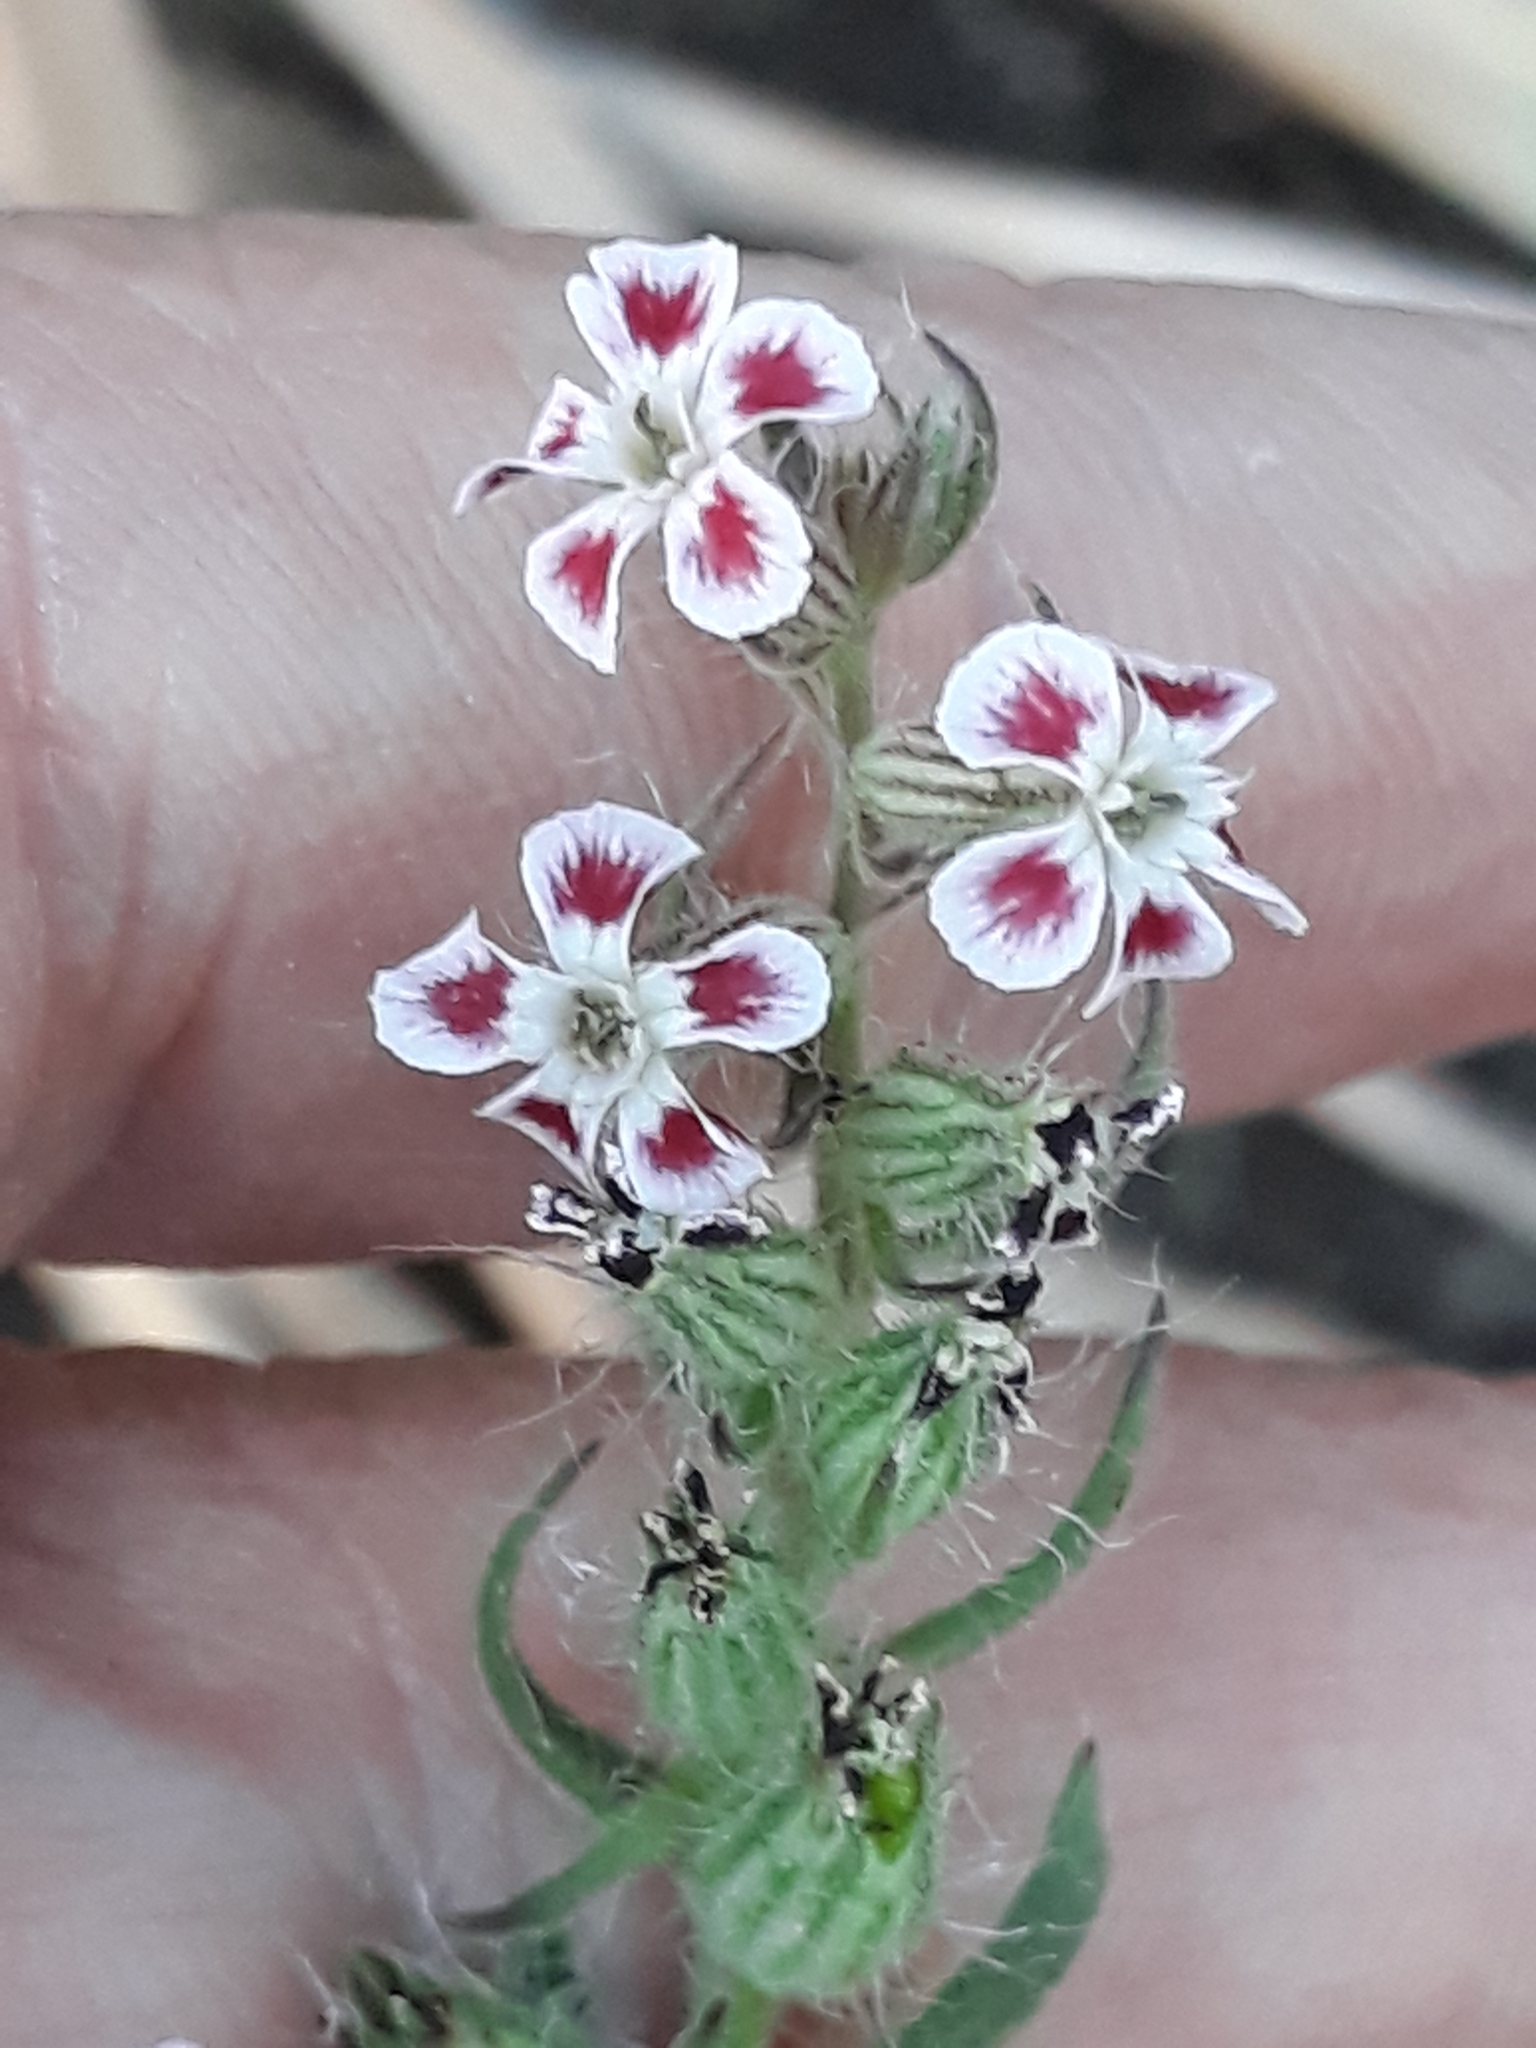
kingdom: Plantae
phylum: Tracheophyta
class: Magnoliopsida
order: Caryophyllales
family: Caryophyllaceae
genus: Silene
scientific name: Silene gallica
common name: Small-flowered catchfly
